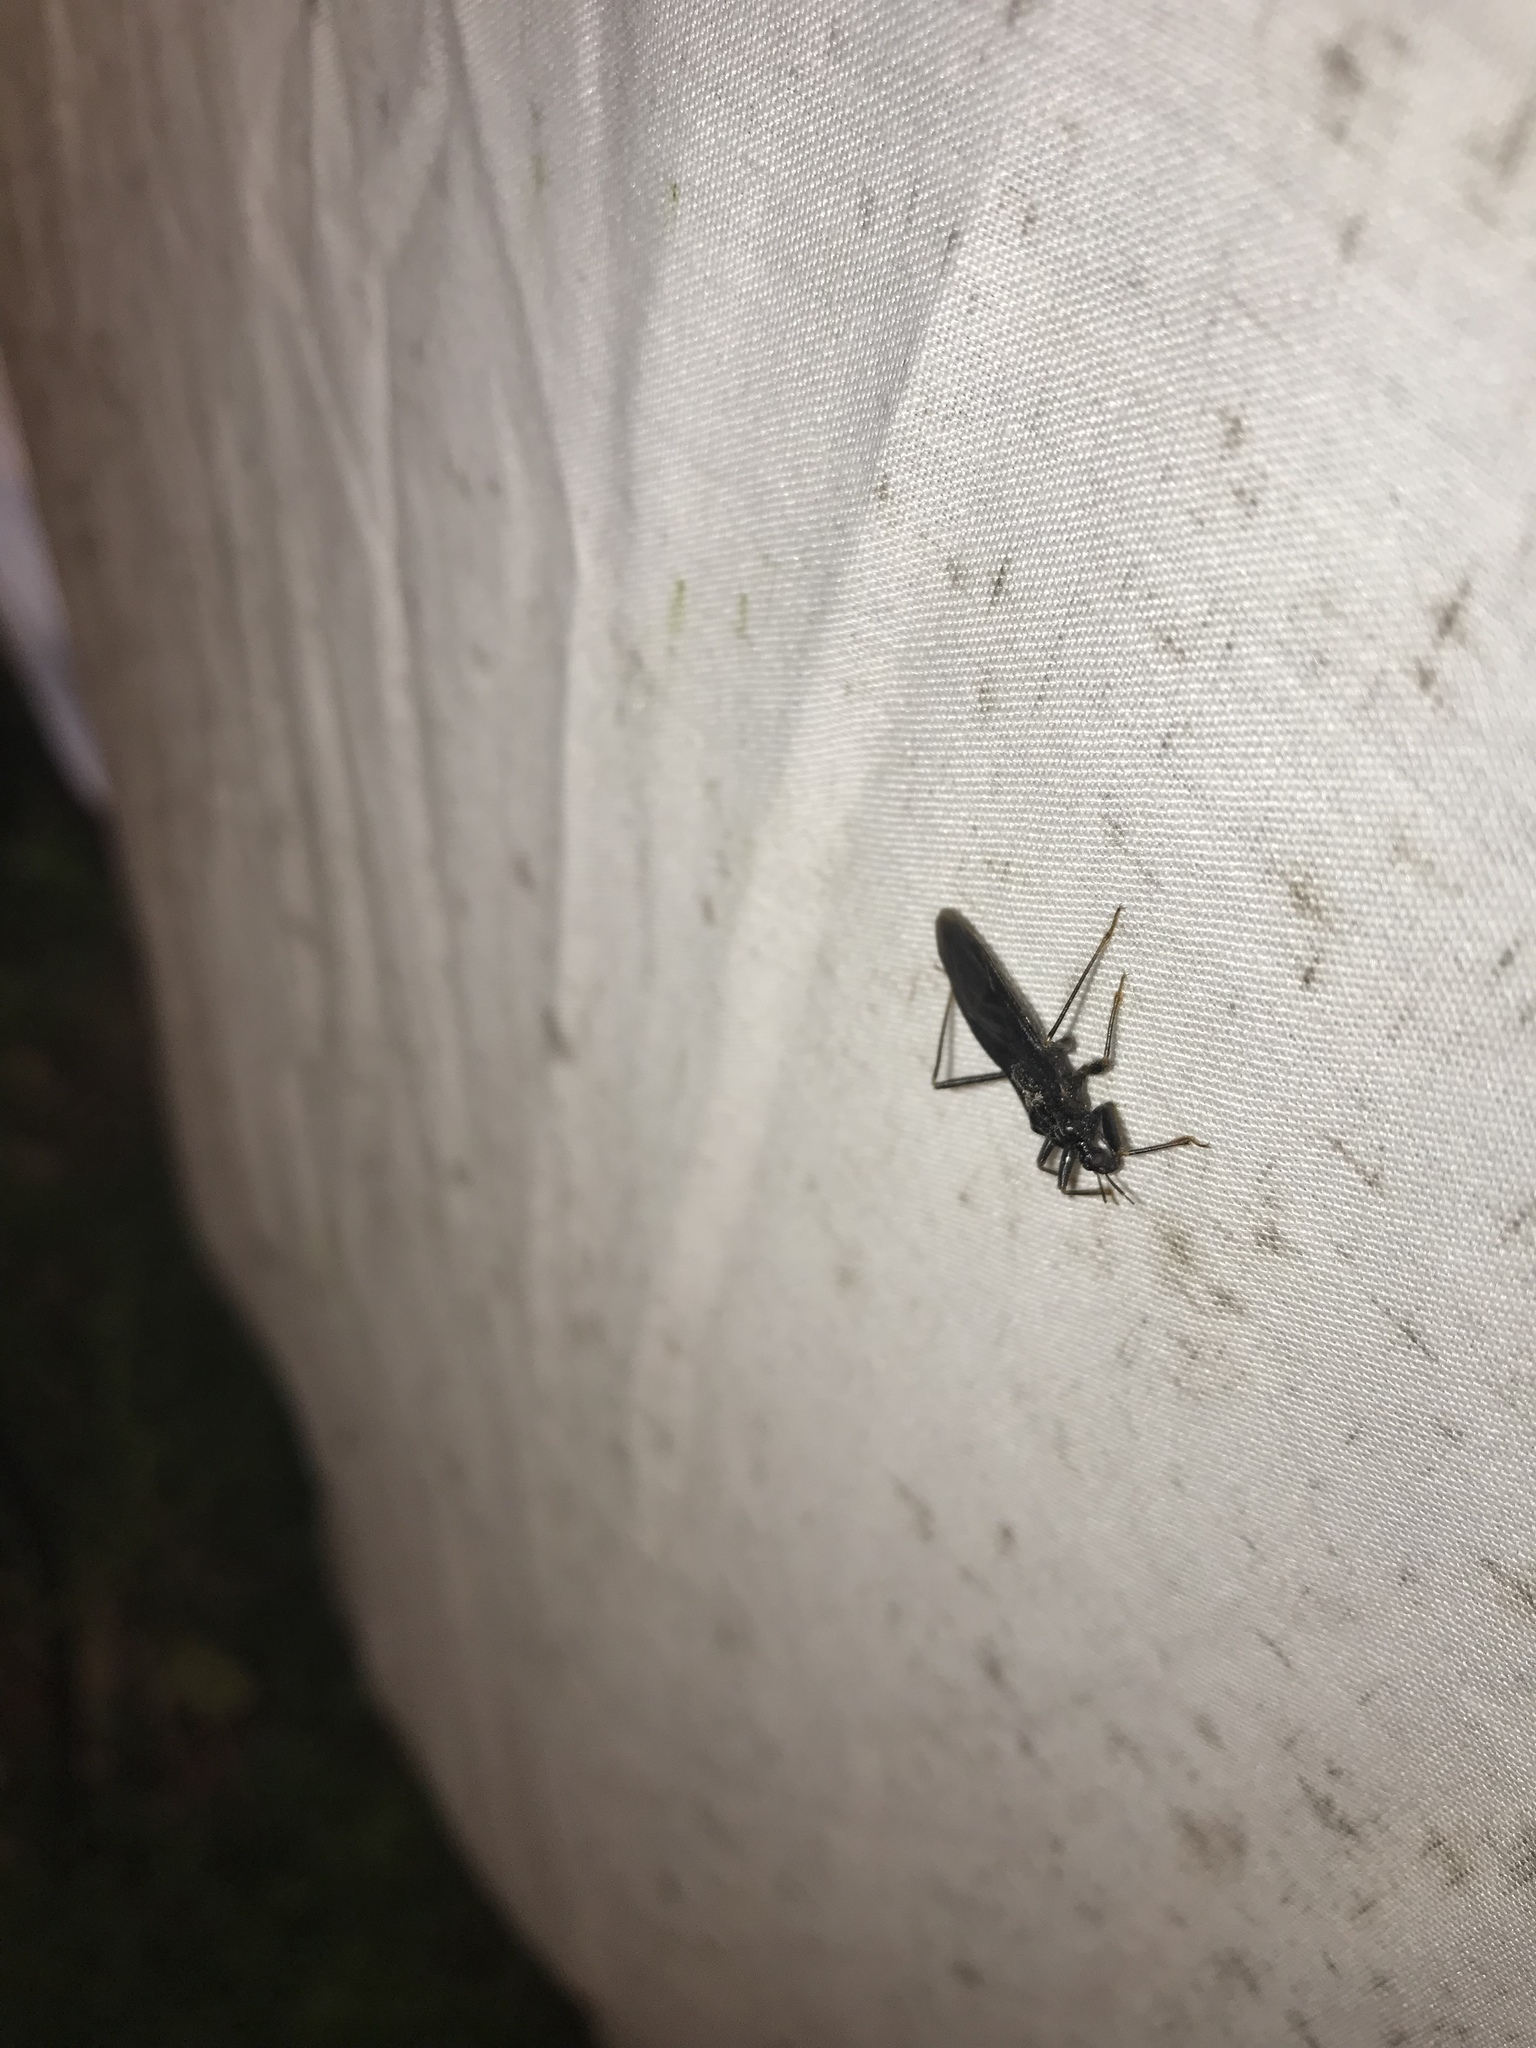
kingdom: Animalia
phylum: Arthropoda
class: Insecta
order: Hemiptera
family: Reduviidae
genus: Reduvius
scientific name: Reduvius personatus
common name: Masked hunter
